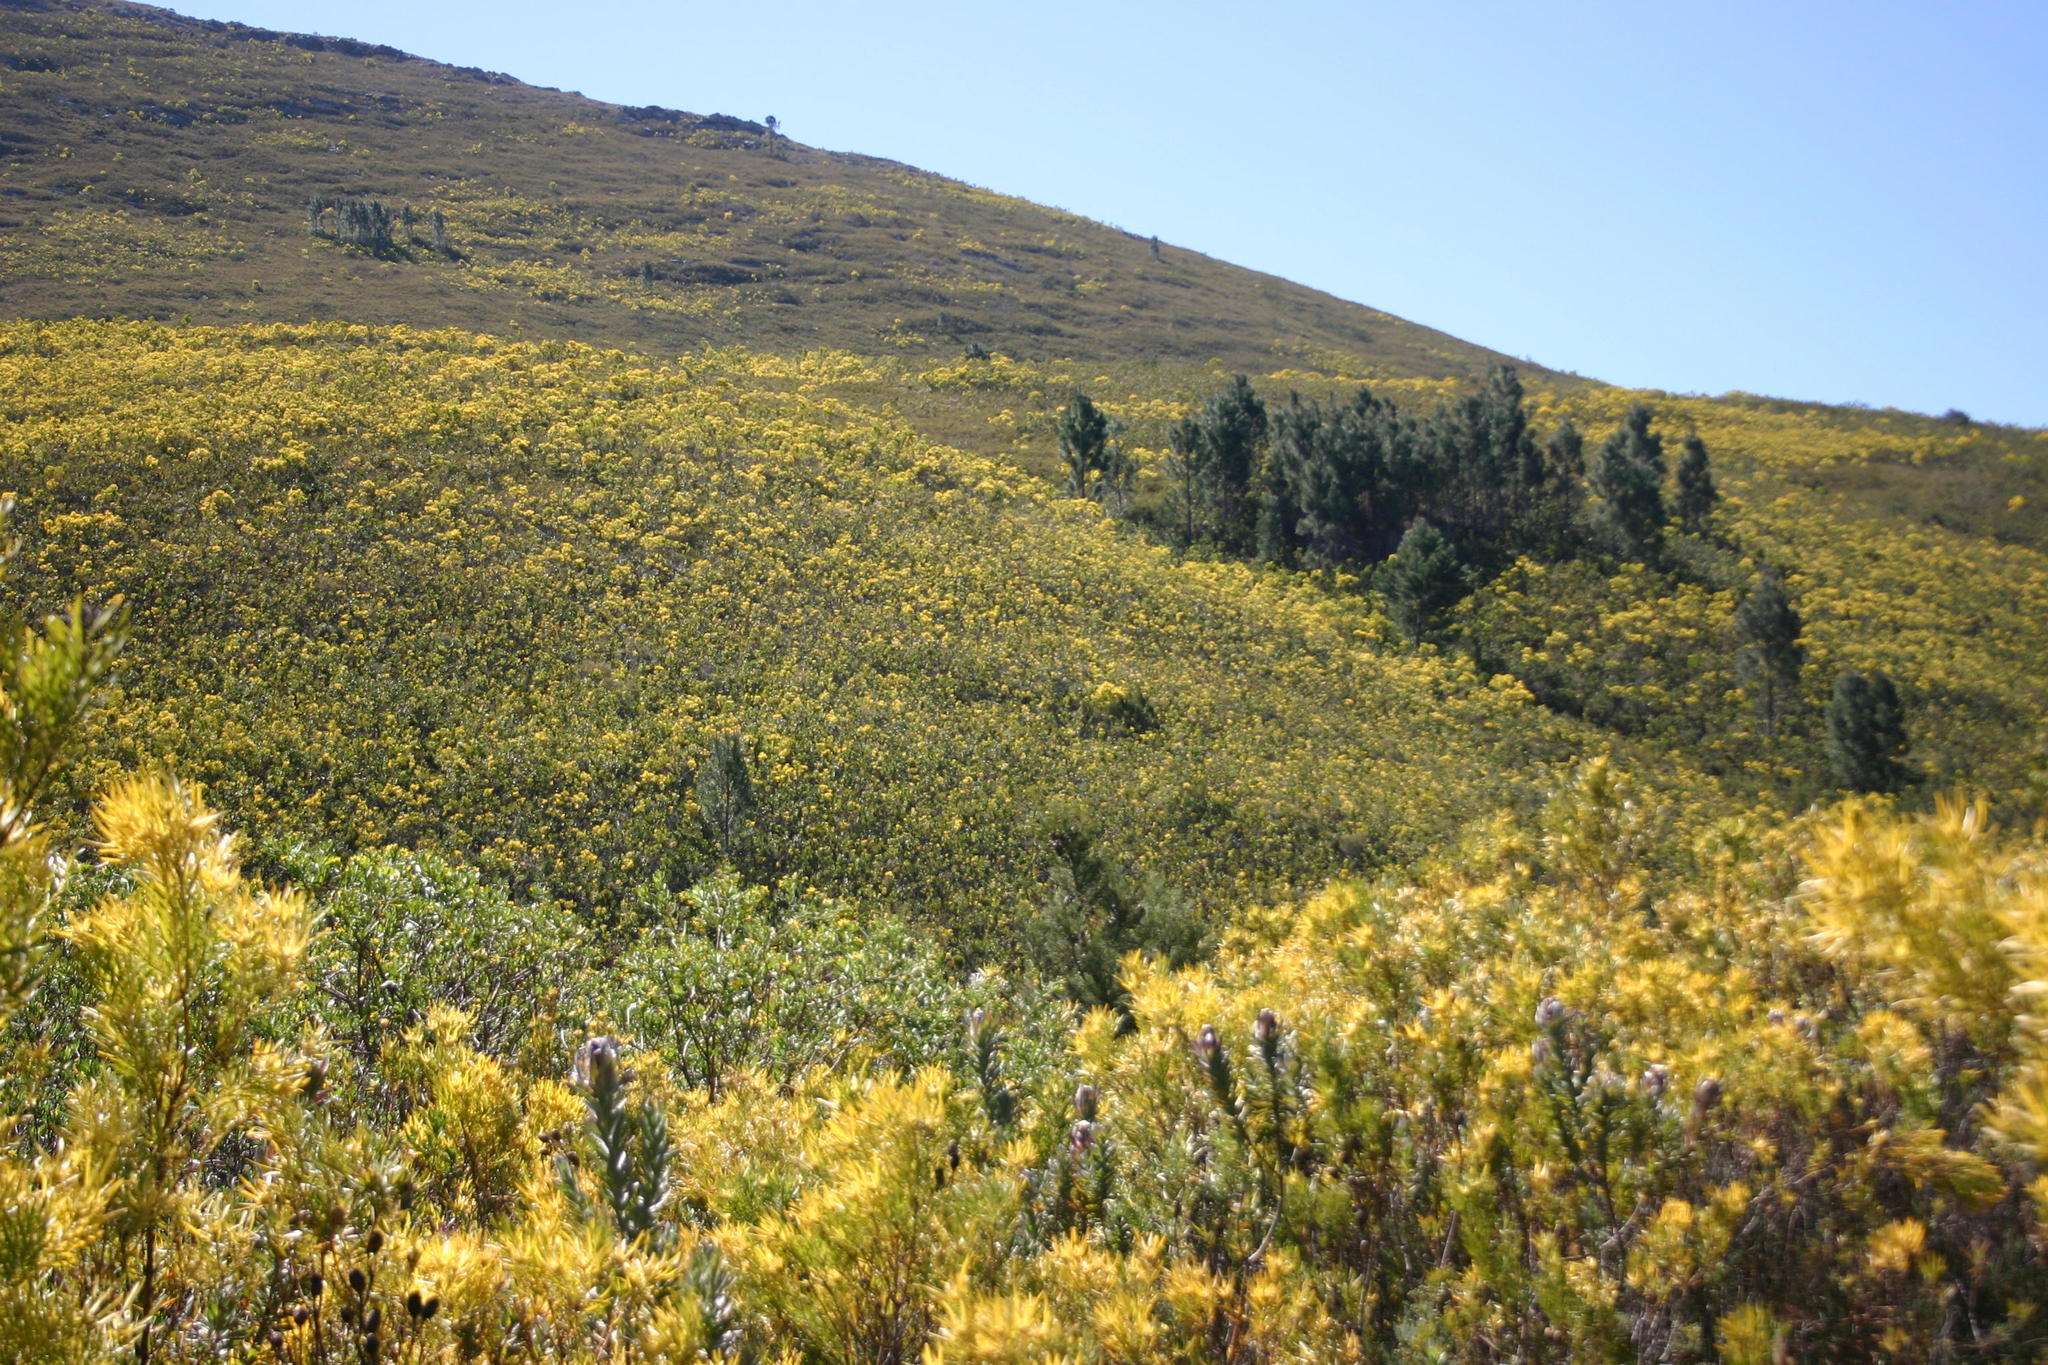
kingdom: Plantae
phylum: Tracheophyta
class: Pinopsida
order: Pinales
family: Pinaceae
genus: Pinus
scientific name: Pinus pinaster
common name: Maritime pine
